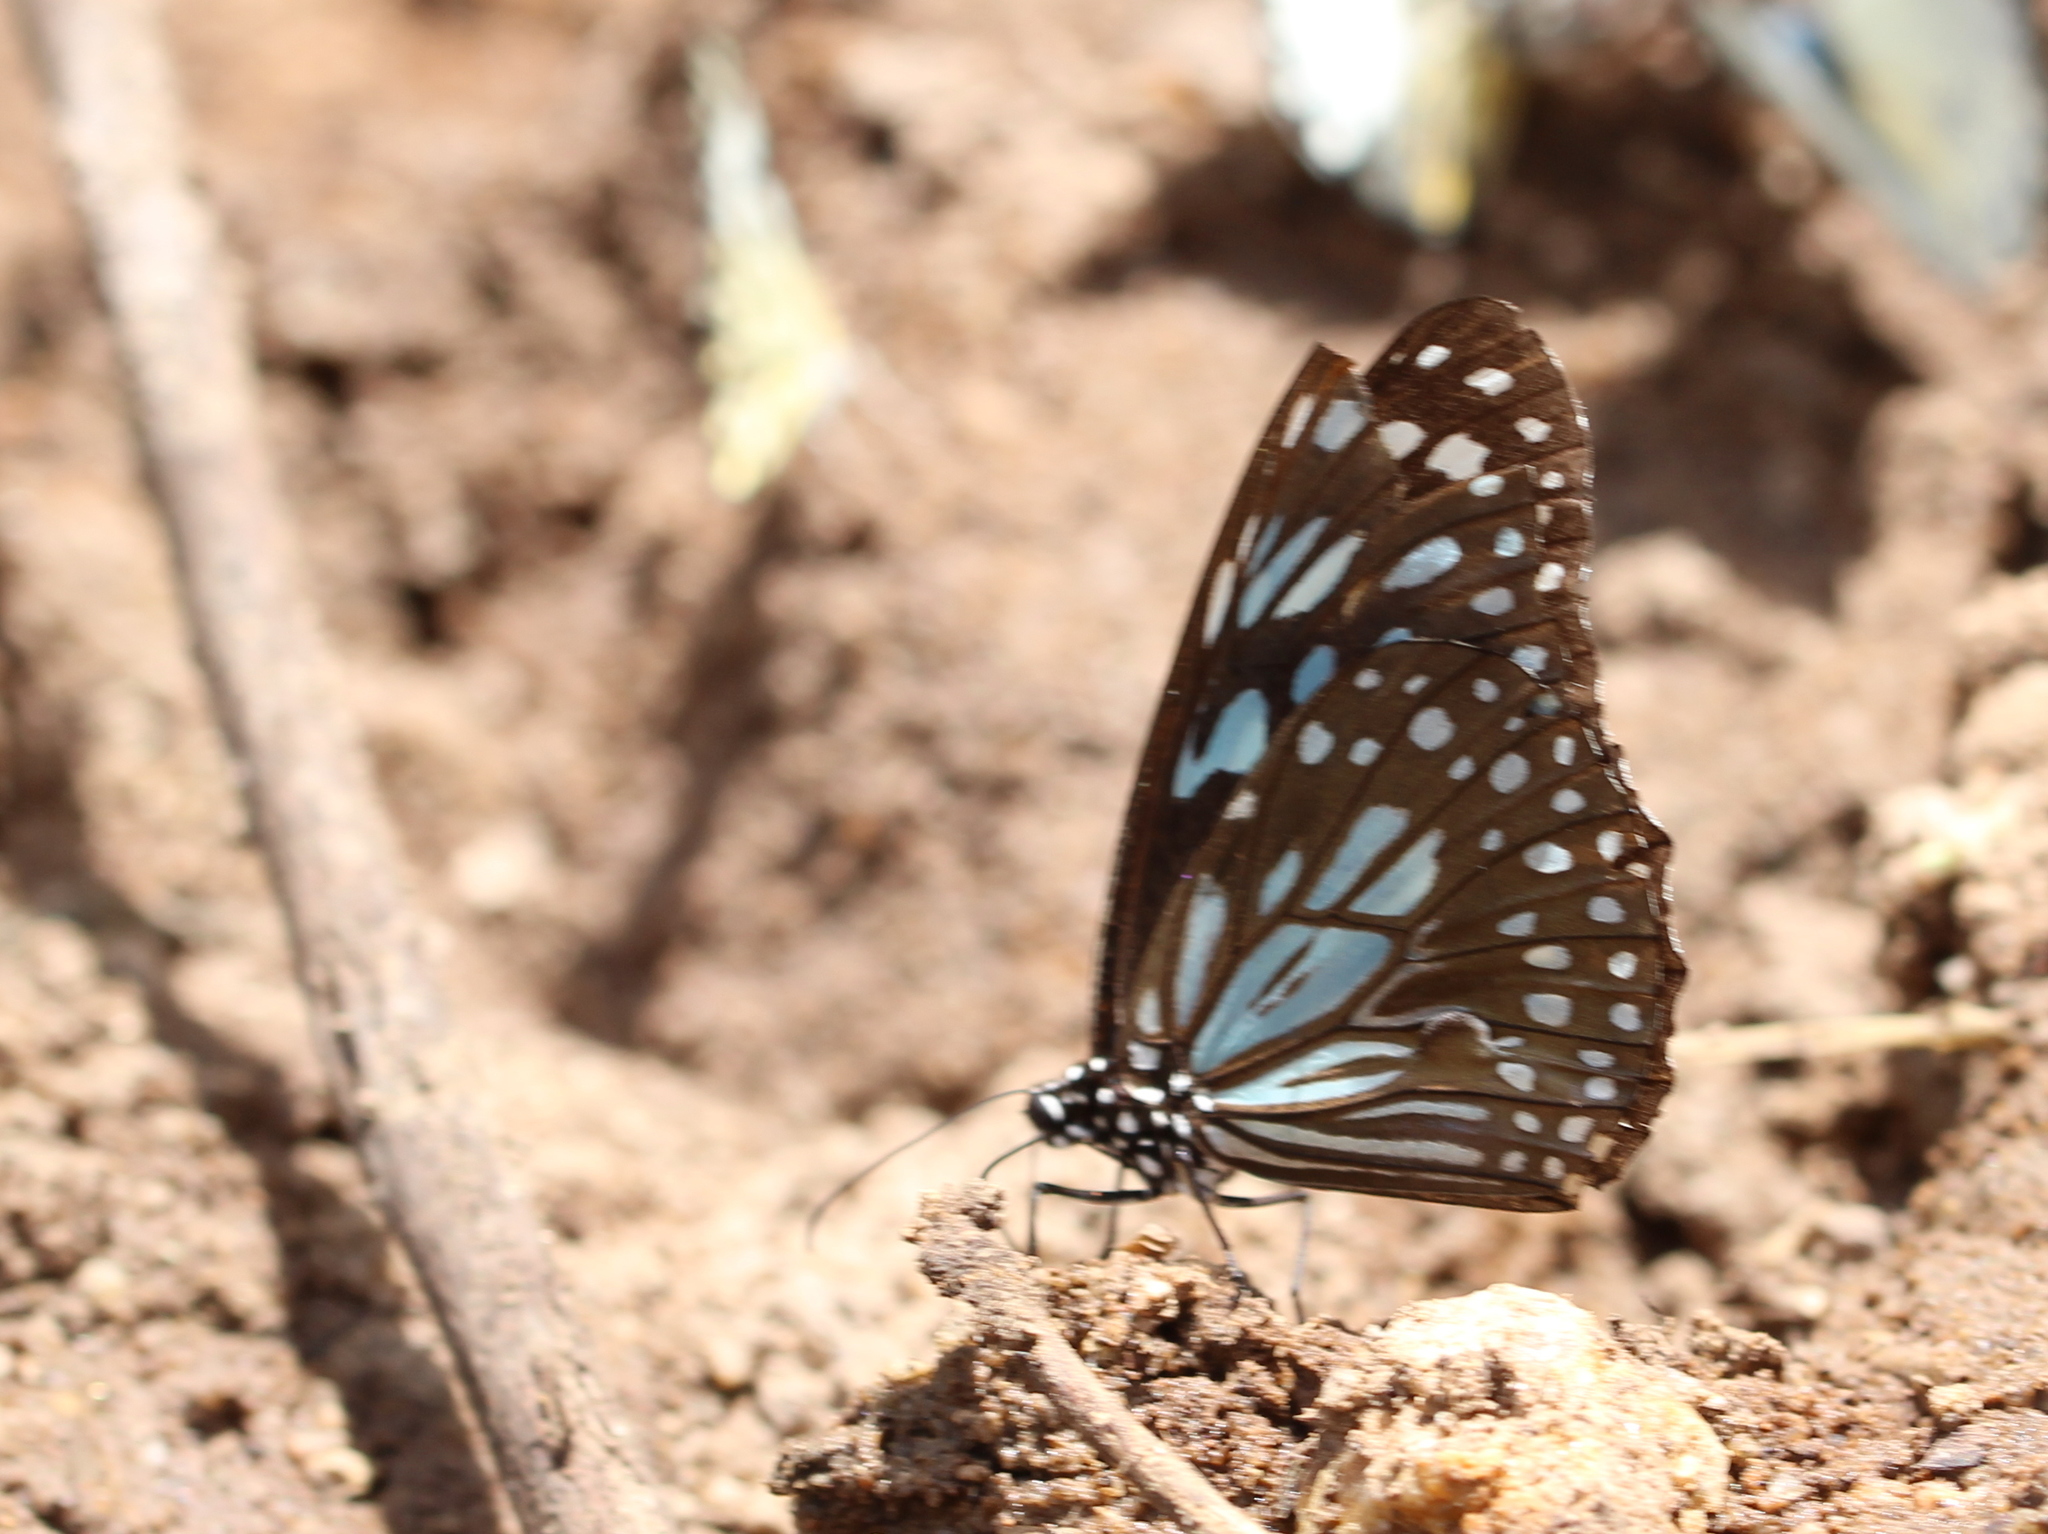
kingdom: Animalia
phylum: Arthropoda
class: Insecta
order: Lepidoptera
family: Nymphalidae
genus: Tirumala
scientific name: Tirumala limniace
